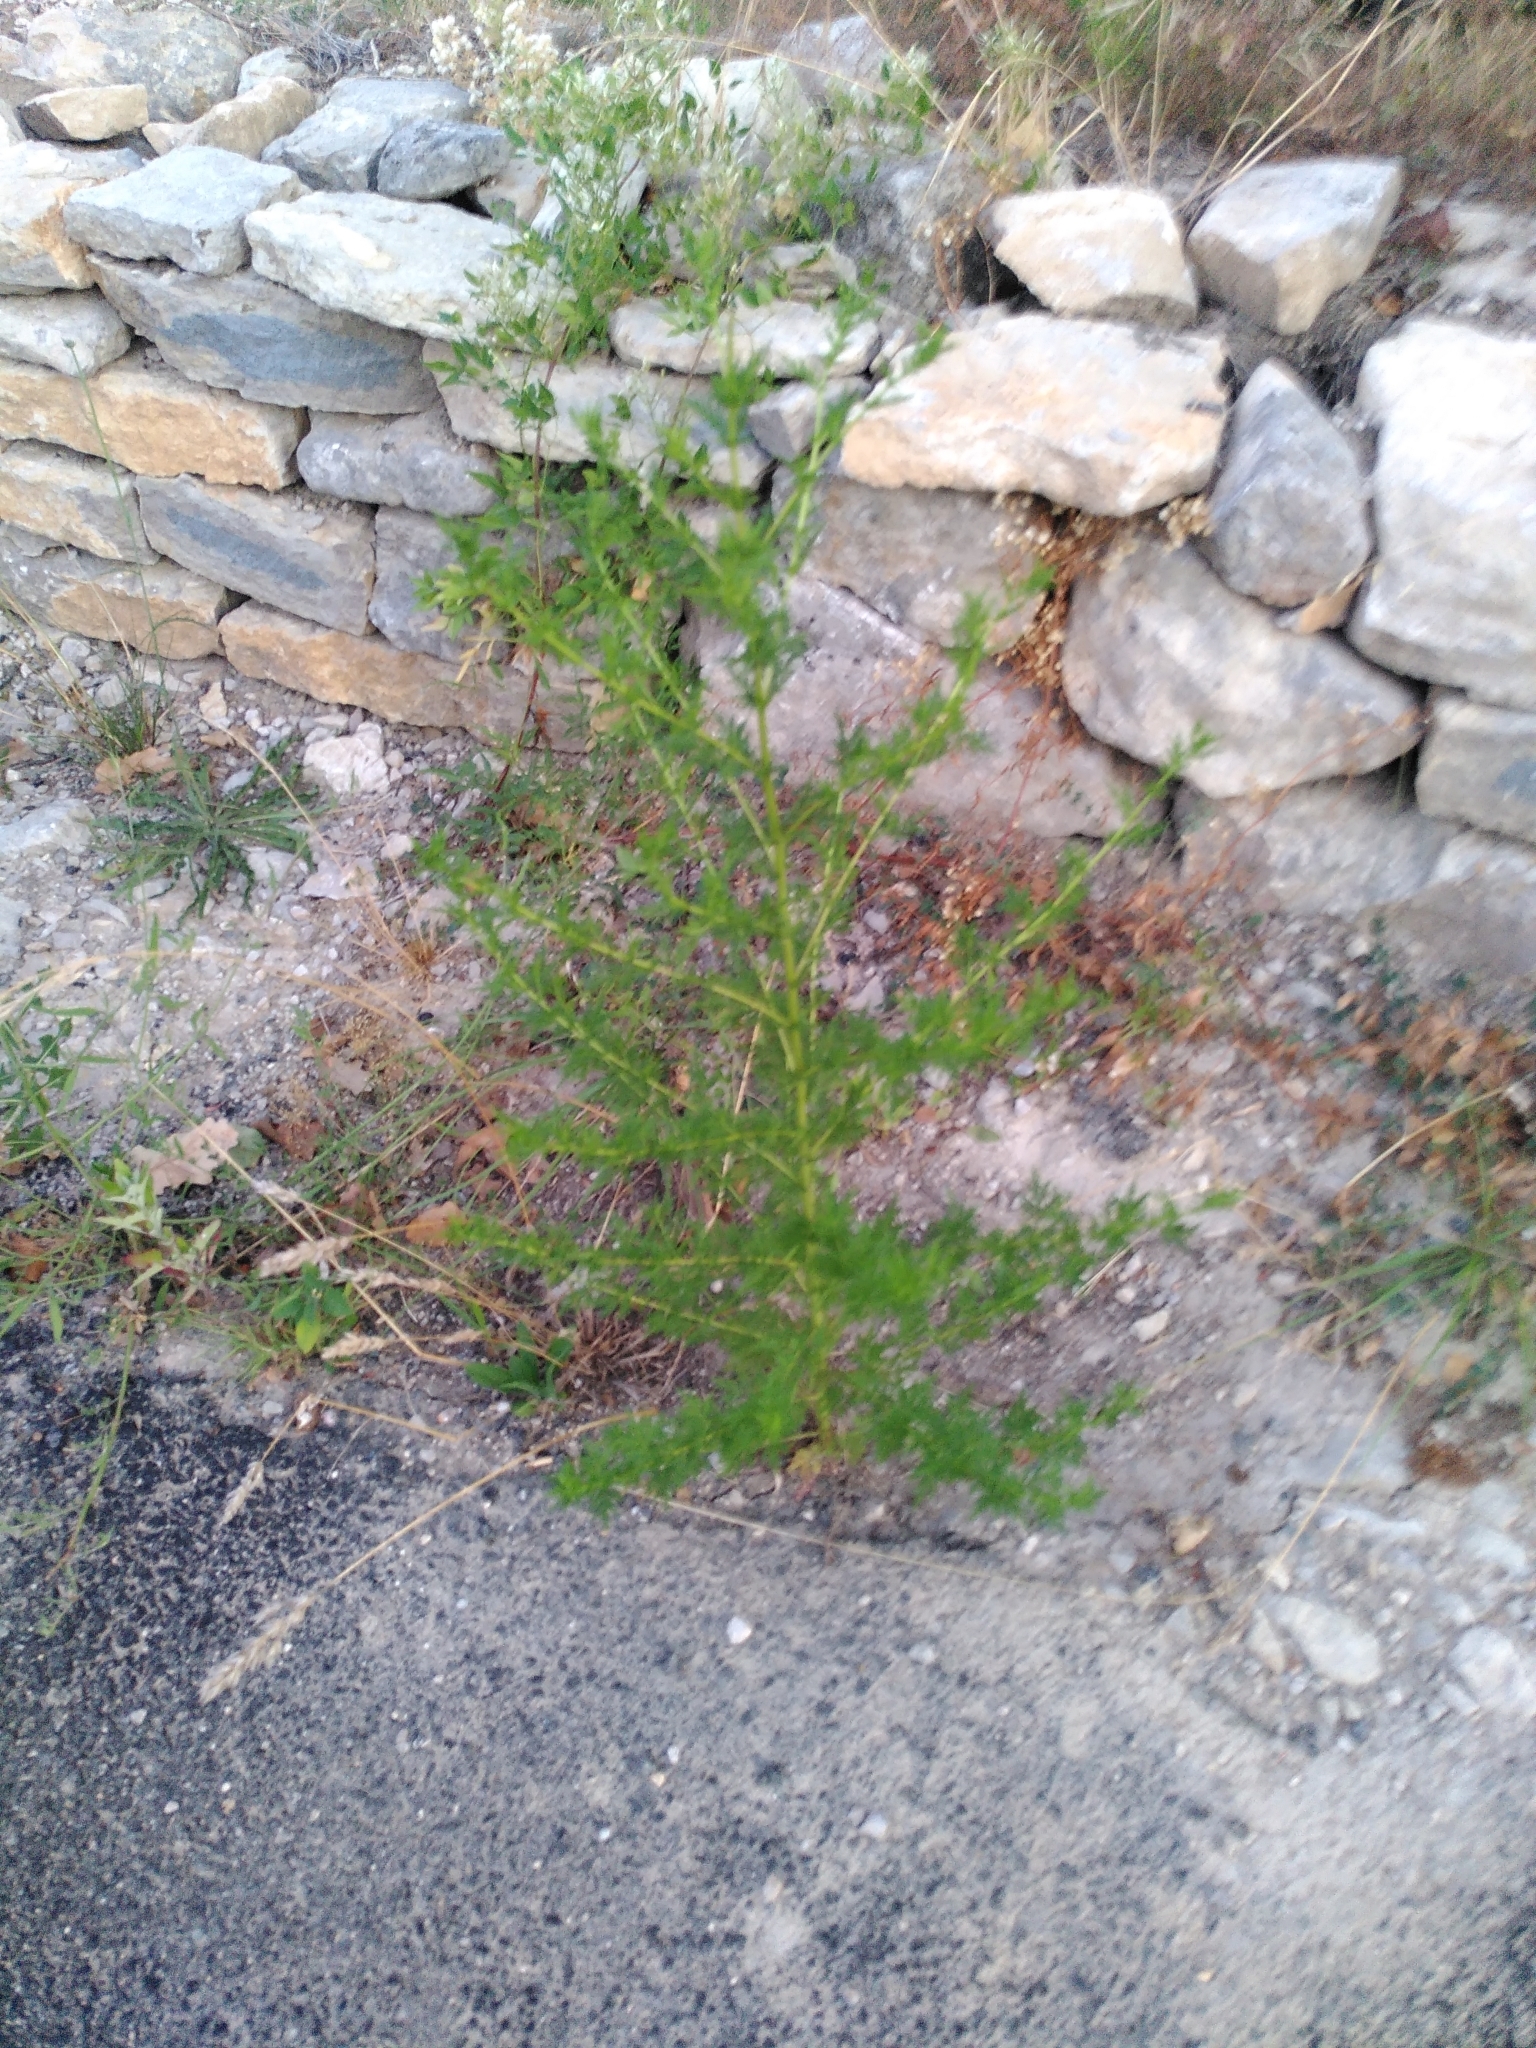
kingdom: Plantae
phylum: Tracheophyta
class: Magnoliopsida
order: Asterales
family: Asteraceae
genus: Artemisia
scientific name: Artemisia annua
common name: Sweet sagewort
